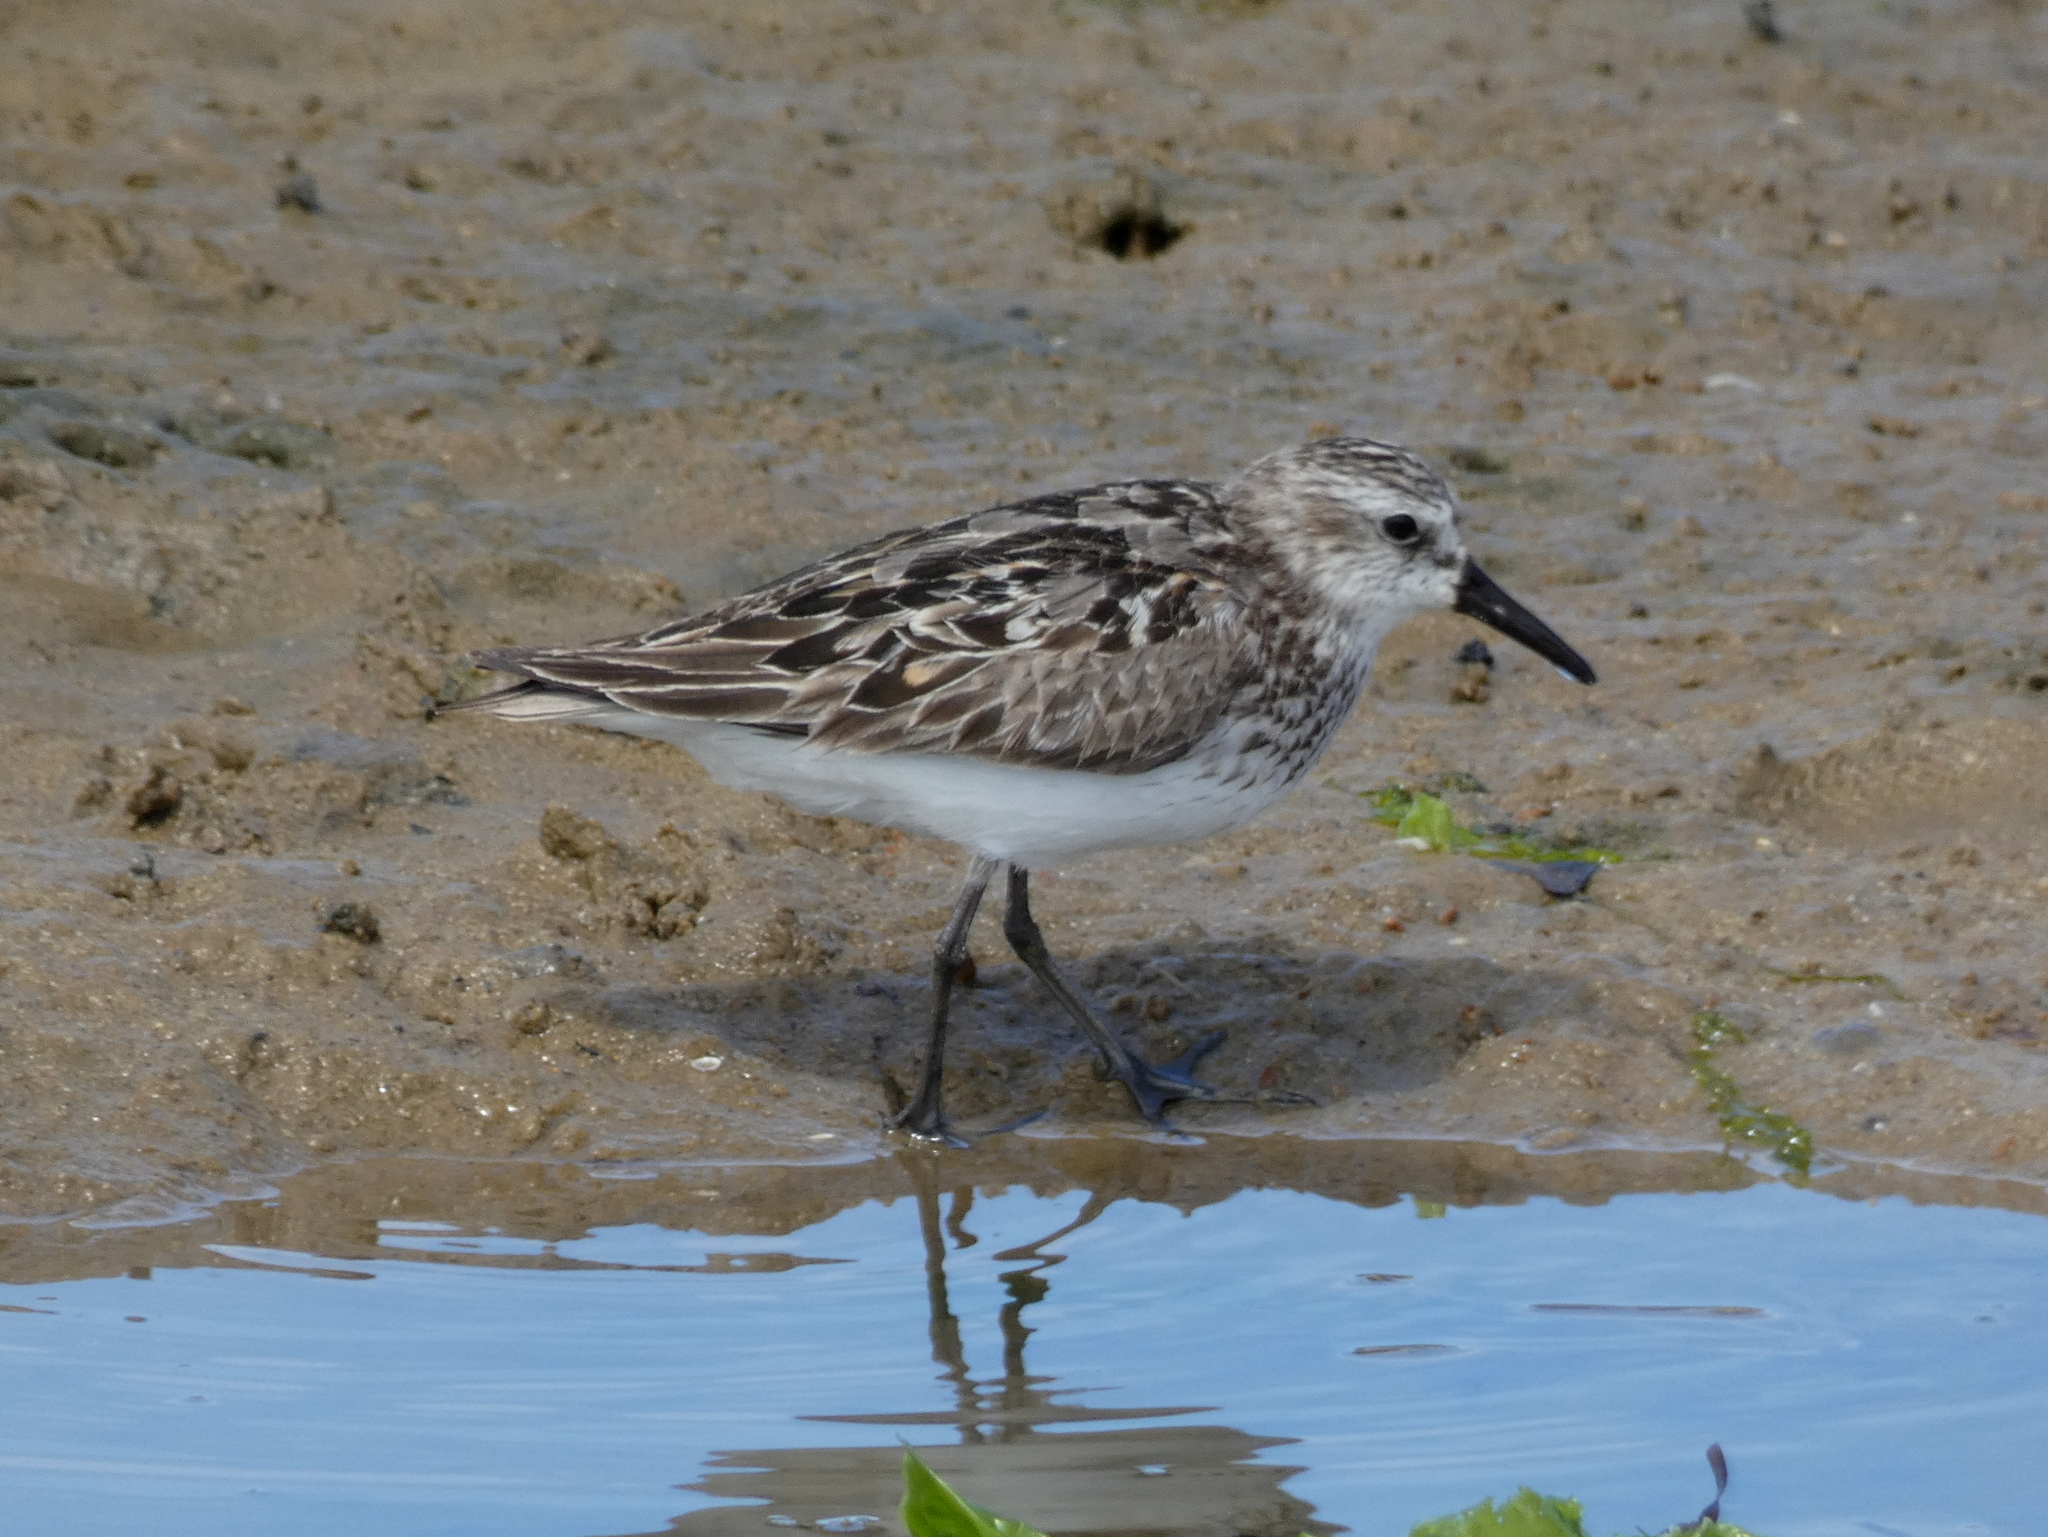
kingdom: Animalia
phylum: Chordata
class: Aves
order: Charadriiformes
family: Scolopacidae
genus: Calidris
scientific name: Calidris pusilla
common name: Semipalmated sandpiper
